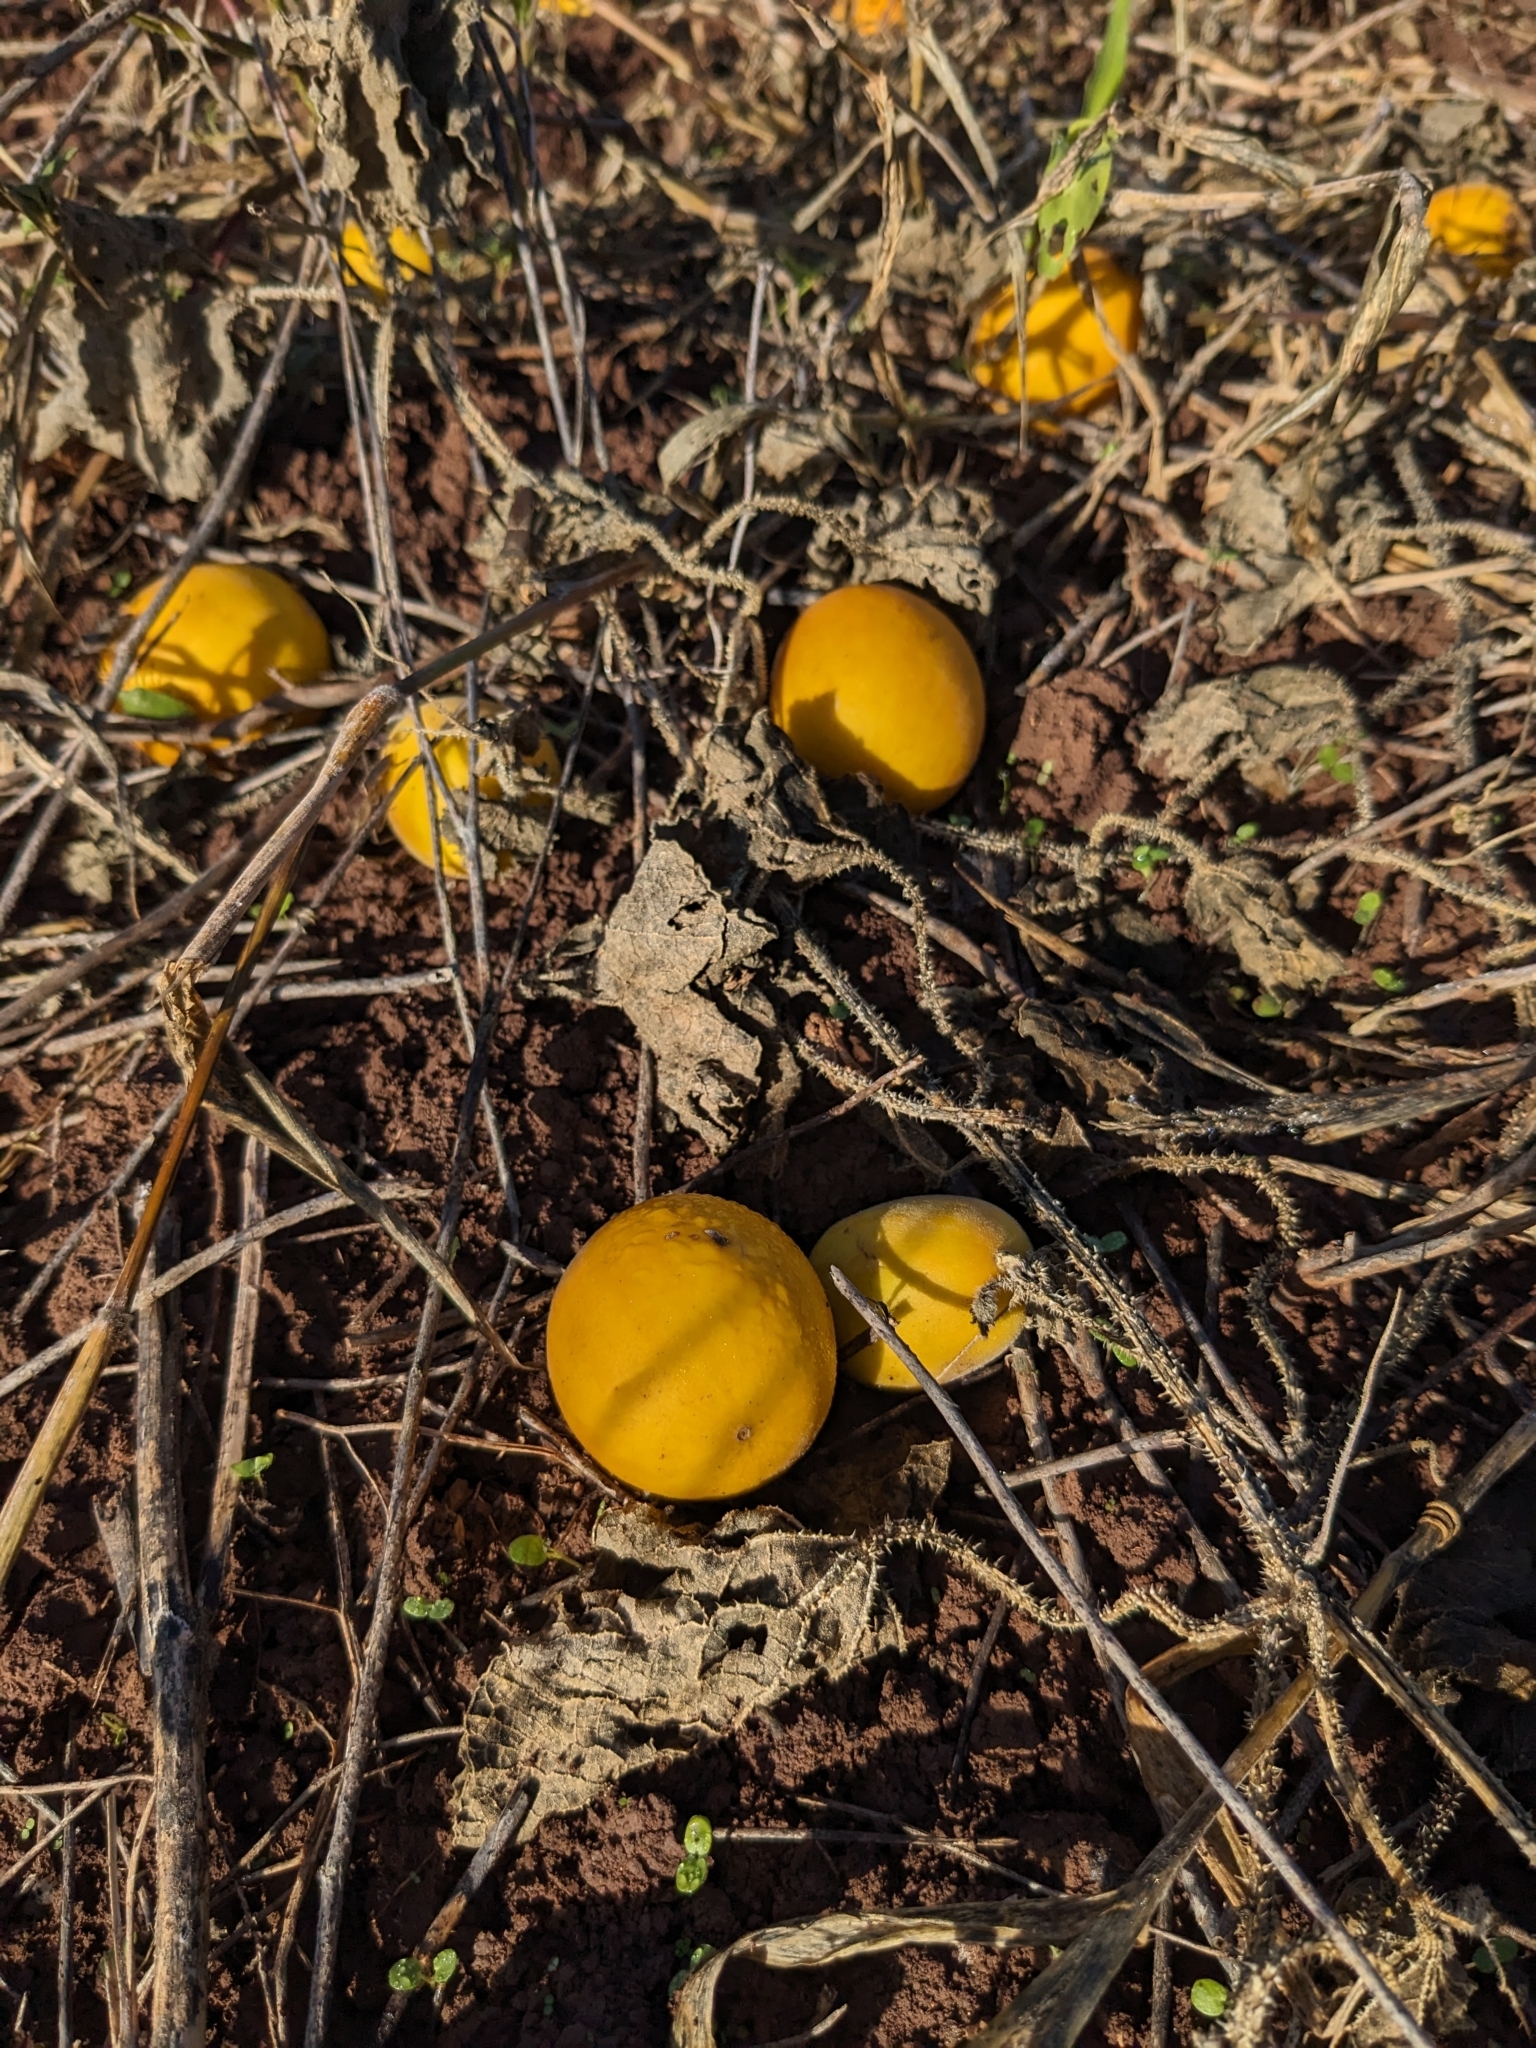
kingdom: Plantae
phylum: Tracheophyta
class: Magnoliopsida
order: Cucurbitales
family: Cucurbitaceae
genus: Cucumis
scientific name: Cucumis melo
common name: Melon
